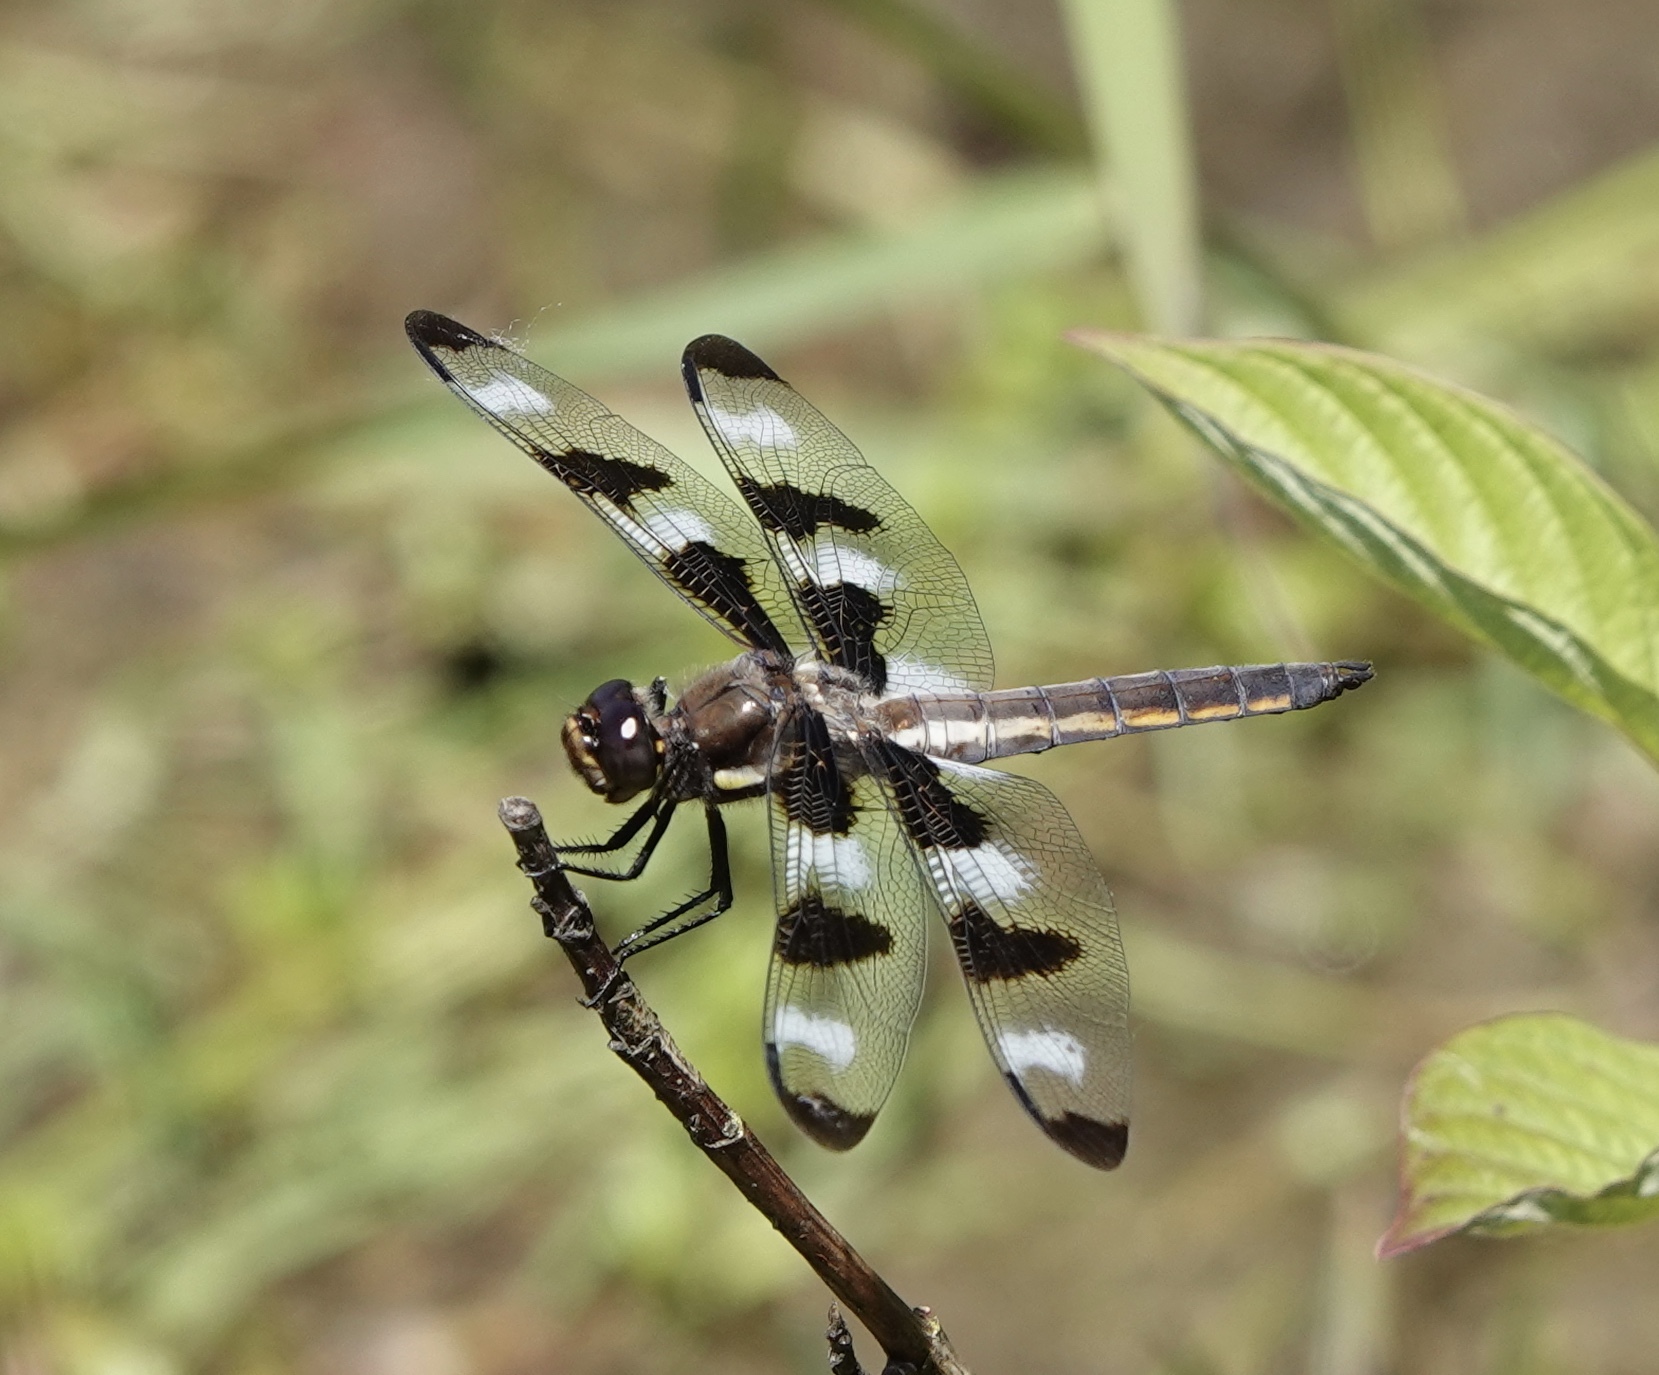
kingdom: Animalia
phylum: Arthropoda
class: Insecta
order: Odonata
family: Libellulidae
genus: Libellula
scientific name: Libellula pulchella
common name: Twelve-spotted skimmer
